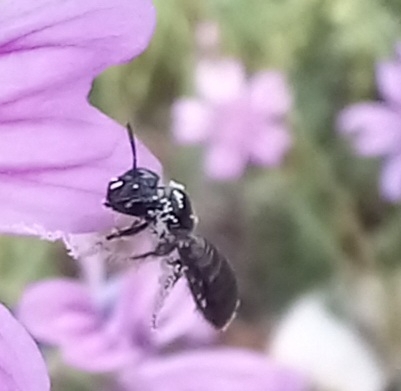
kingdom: Animalia
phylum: Arthropoda
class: Insecta
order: Hymenoptera
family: Apidae
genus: Ceratina
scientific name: Ceratina cucurbitina
